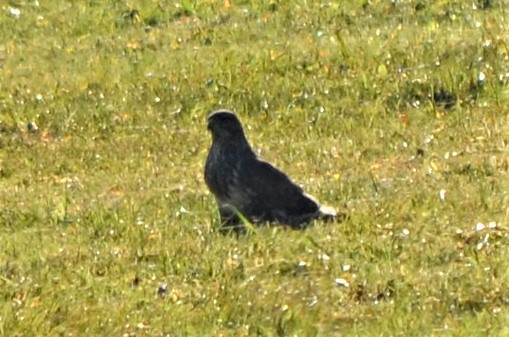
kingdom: Animalia
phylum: Chordata
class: Aves
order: Accipitriformes
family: Accipitridae
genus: Buteo
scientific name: Buteo buteo
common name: Common buzzard
